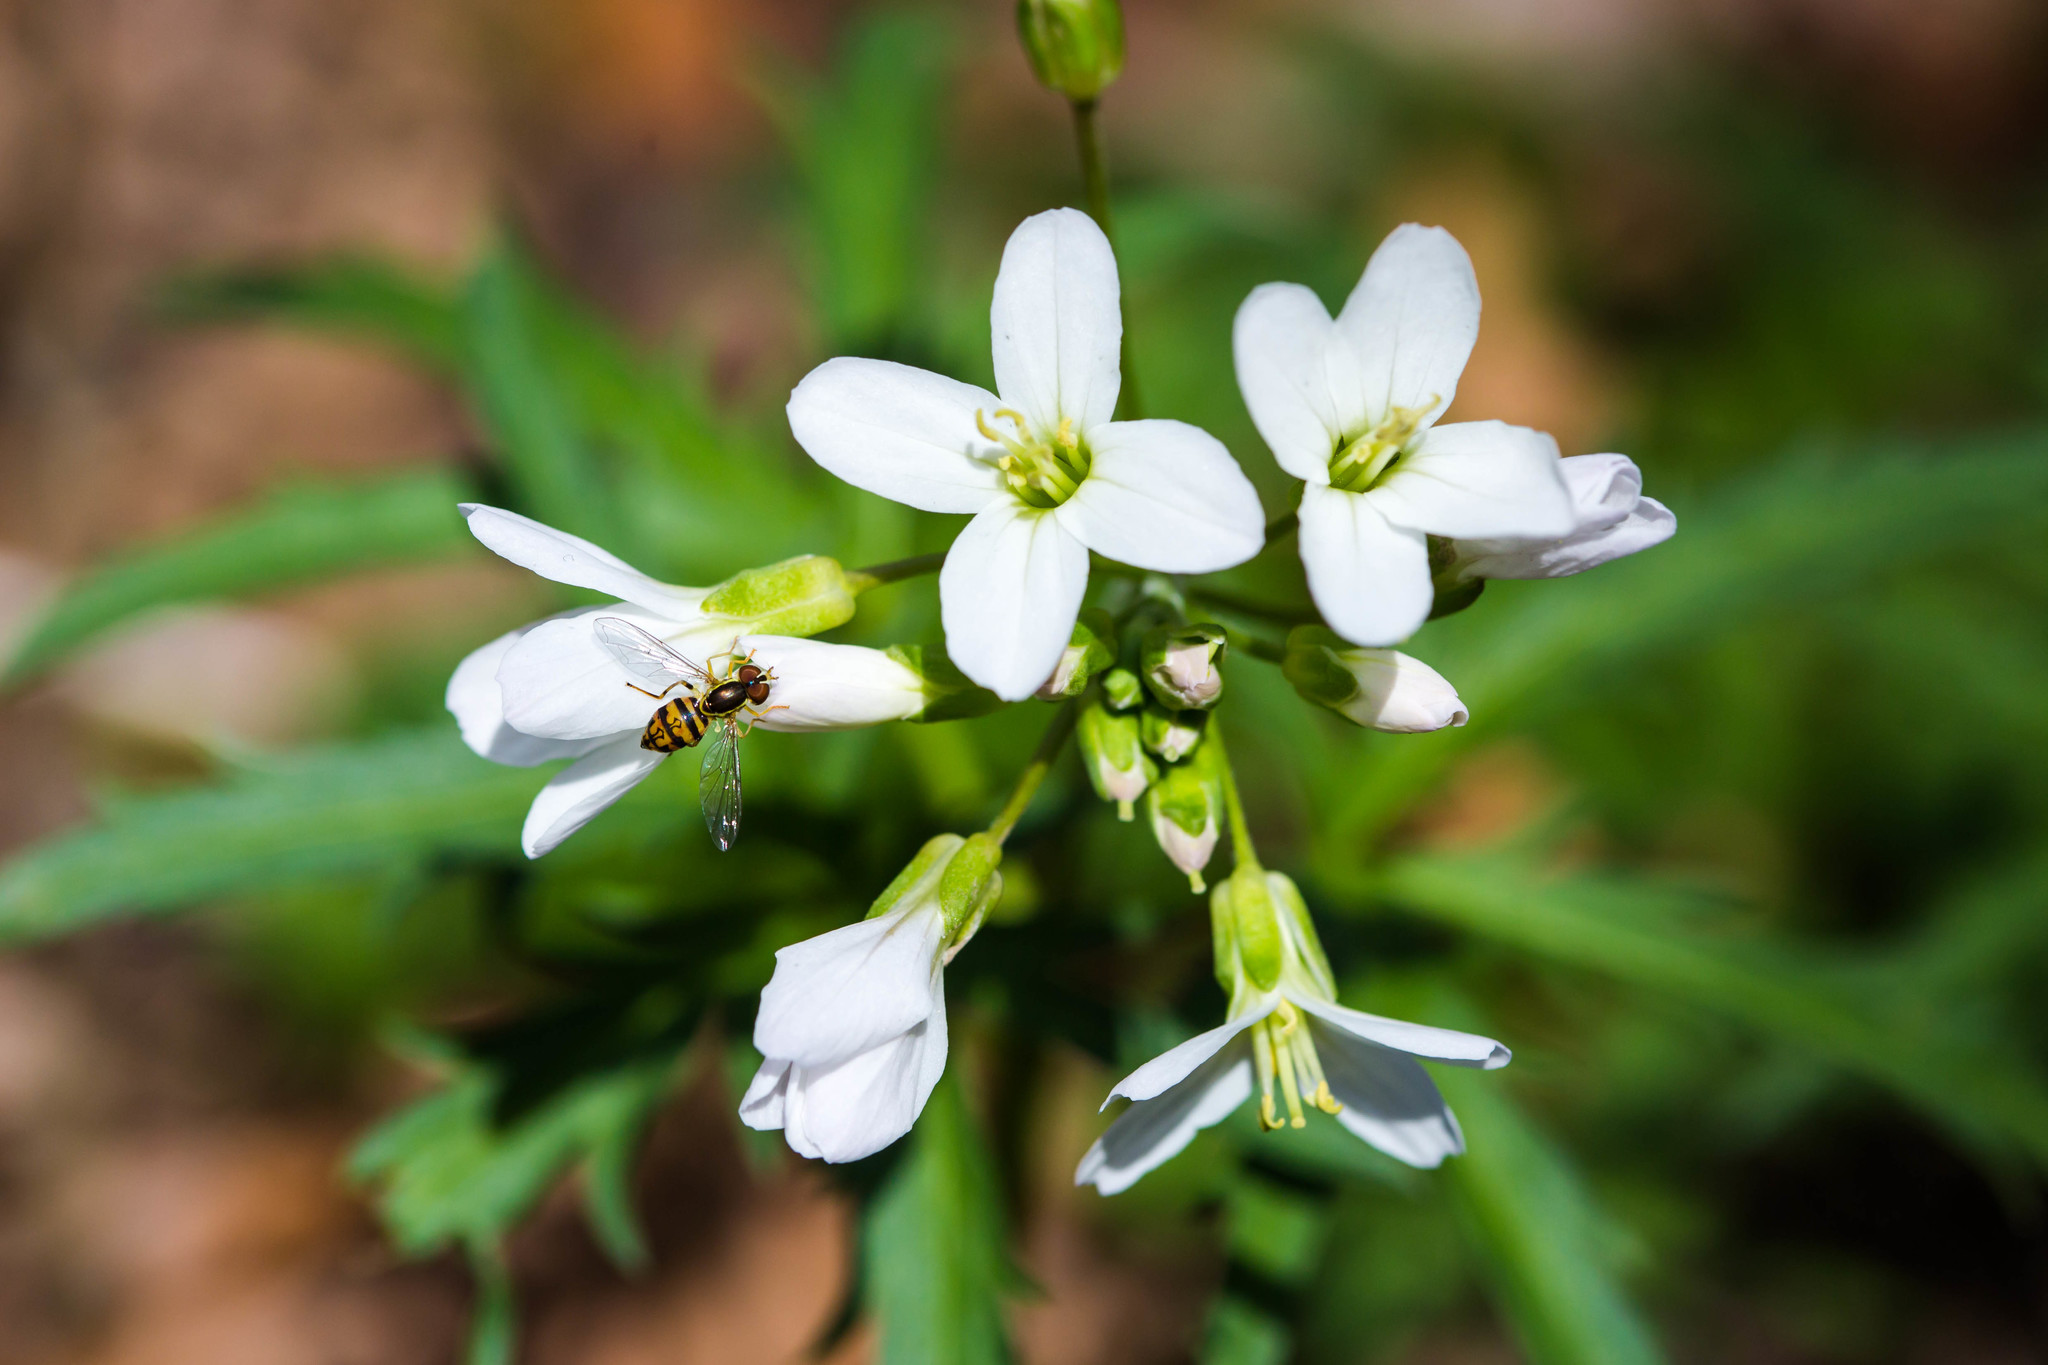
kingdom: Animalia
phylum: Arthropoda
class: Insecta
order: Diptera
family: Syrphidae
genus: Toxomerus
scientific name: Toxomerus geminatus
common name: Eastern calligrapher
